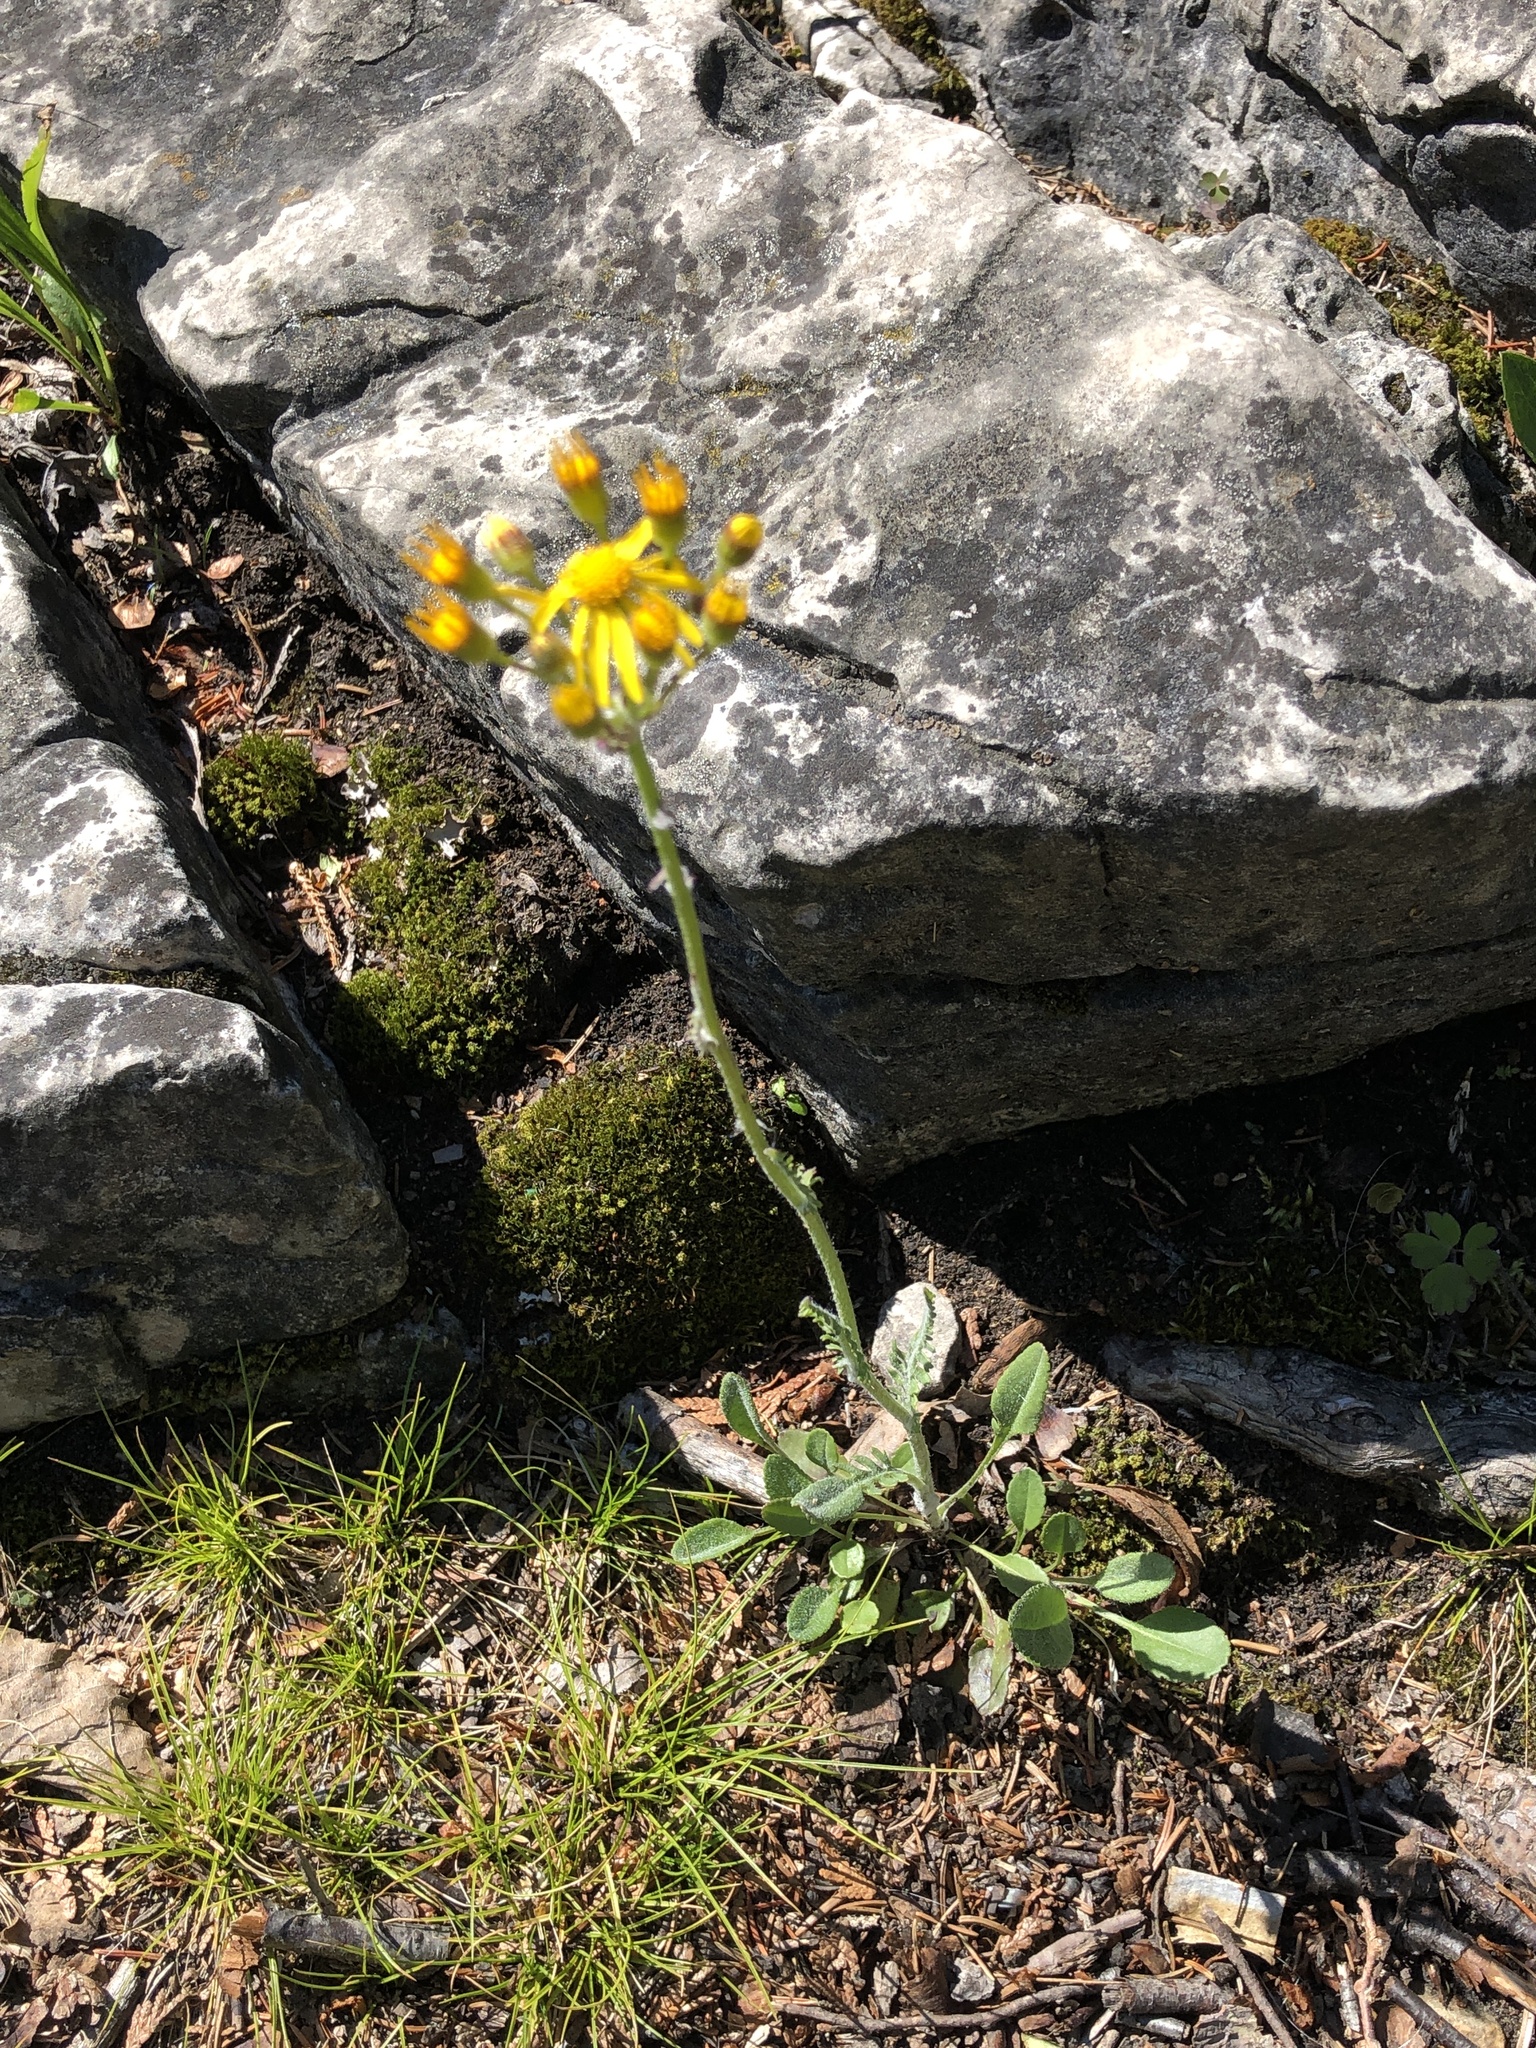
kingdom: Plantae
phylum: Tracheophyta
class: Magnoliopsida
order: Asterales
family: Asteraceae
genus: Packera
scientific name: Packera paupercula
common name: Balsam groundsel
